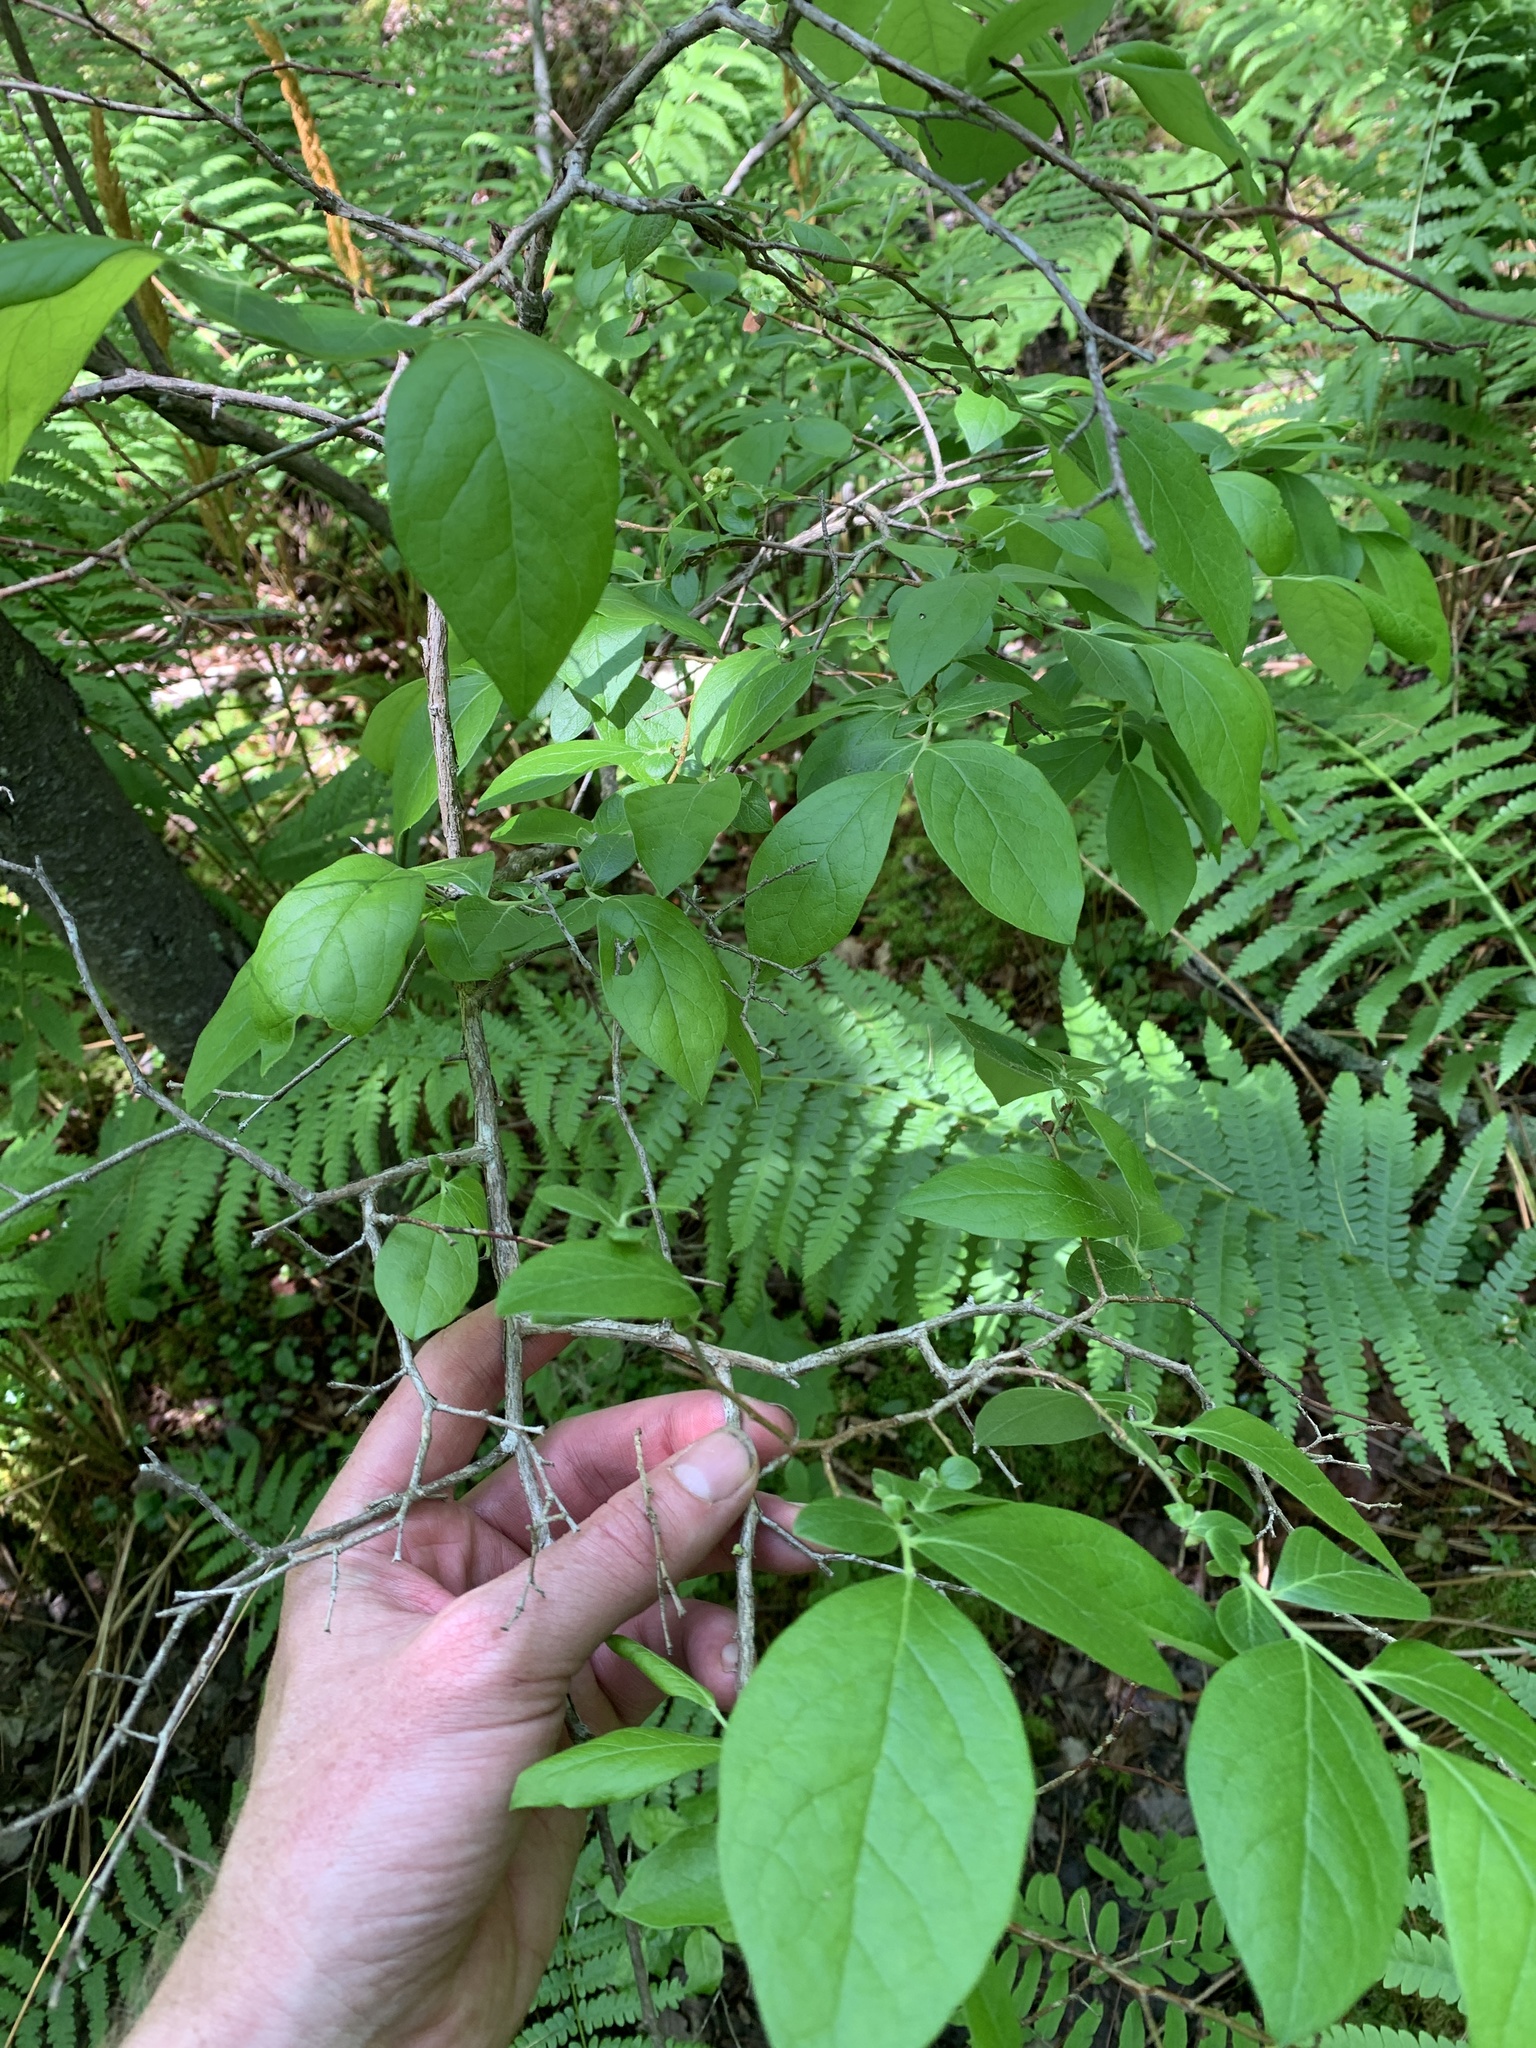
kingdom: Plantae
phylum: Tracheophyta
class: Magnoliopsida
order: Ericales
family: Ericaceae
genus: Vaccinium
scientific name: Vaccinium corymbosum
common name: Blueberry
